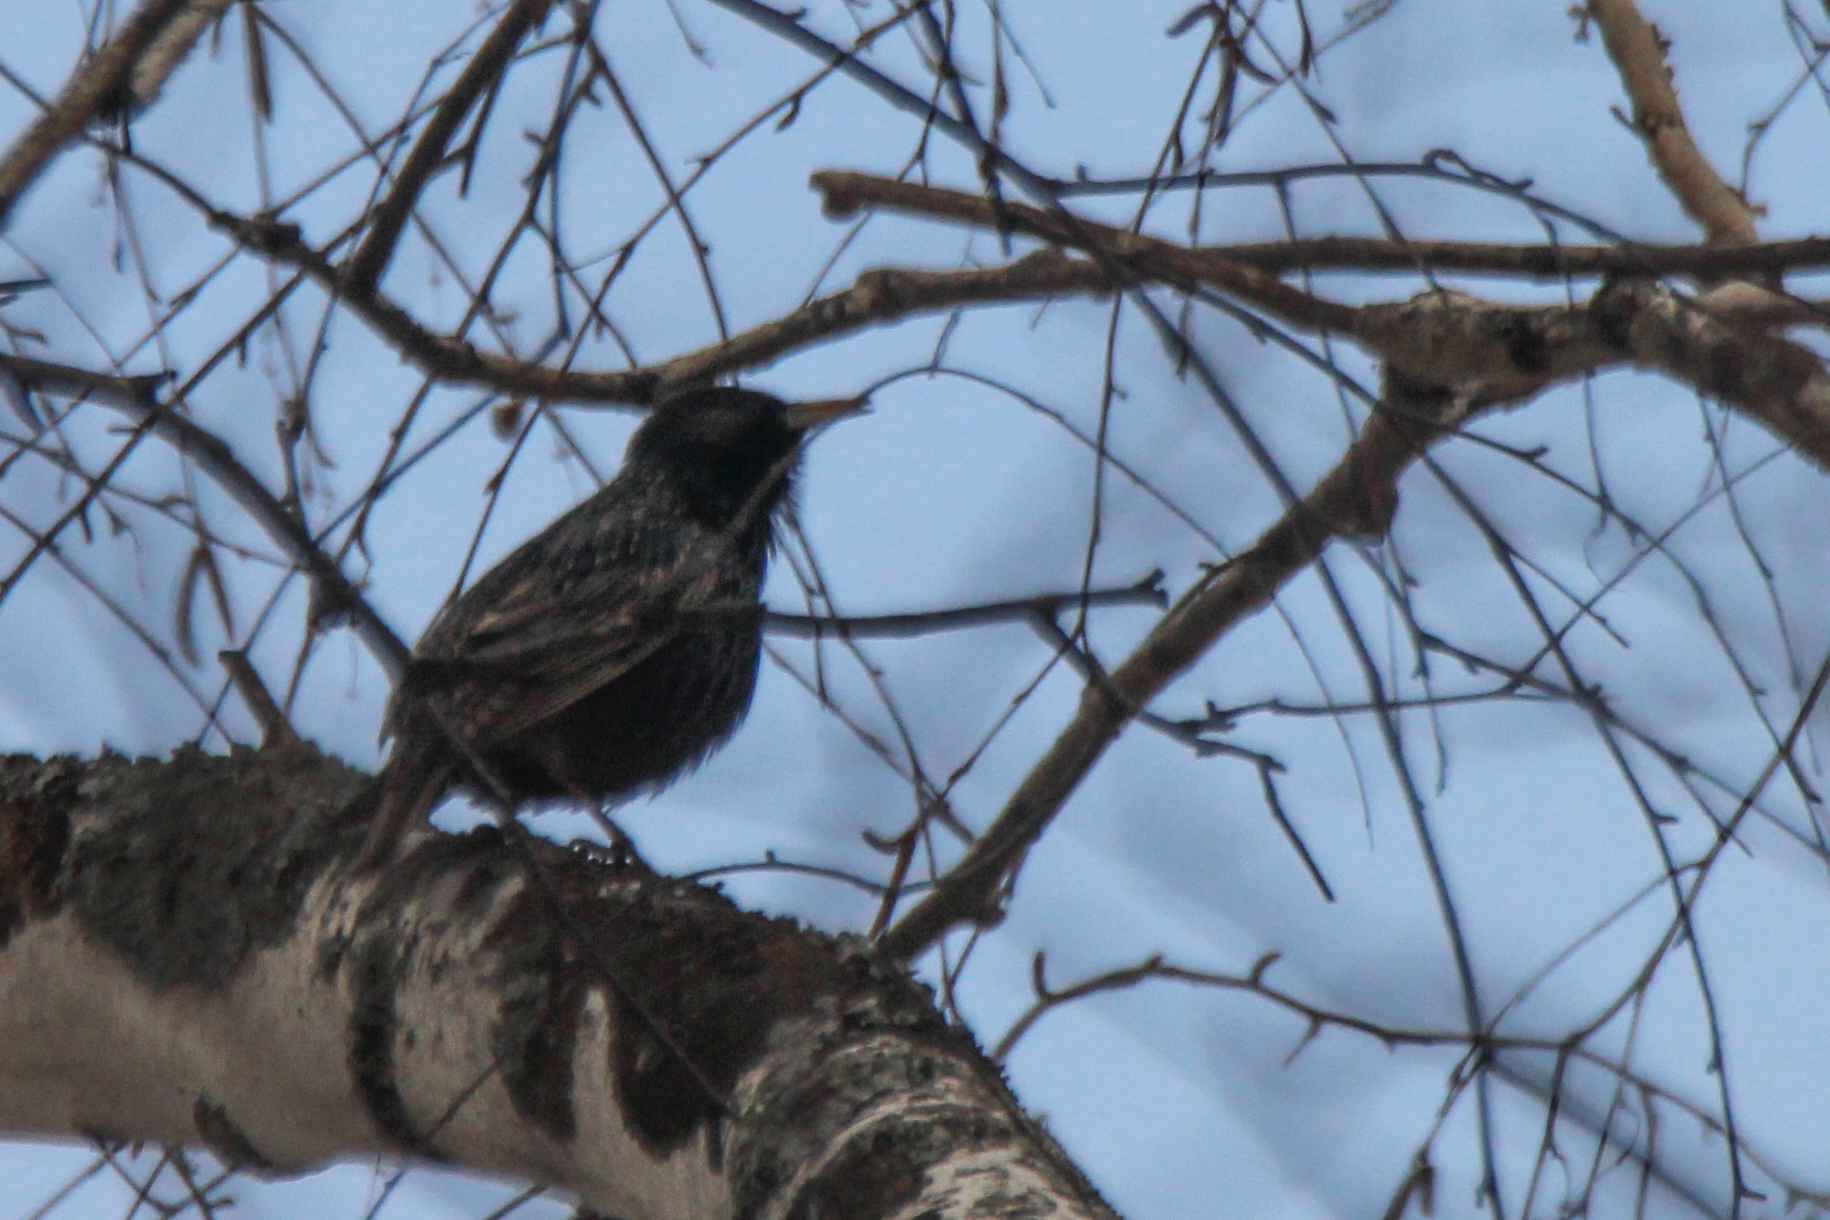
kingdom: Animalia
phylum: Chordata
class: Aves
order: Passeriformes
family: Sturnidae
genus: Sturnus
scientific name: Sturnus vulgaris
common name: Common starling
